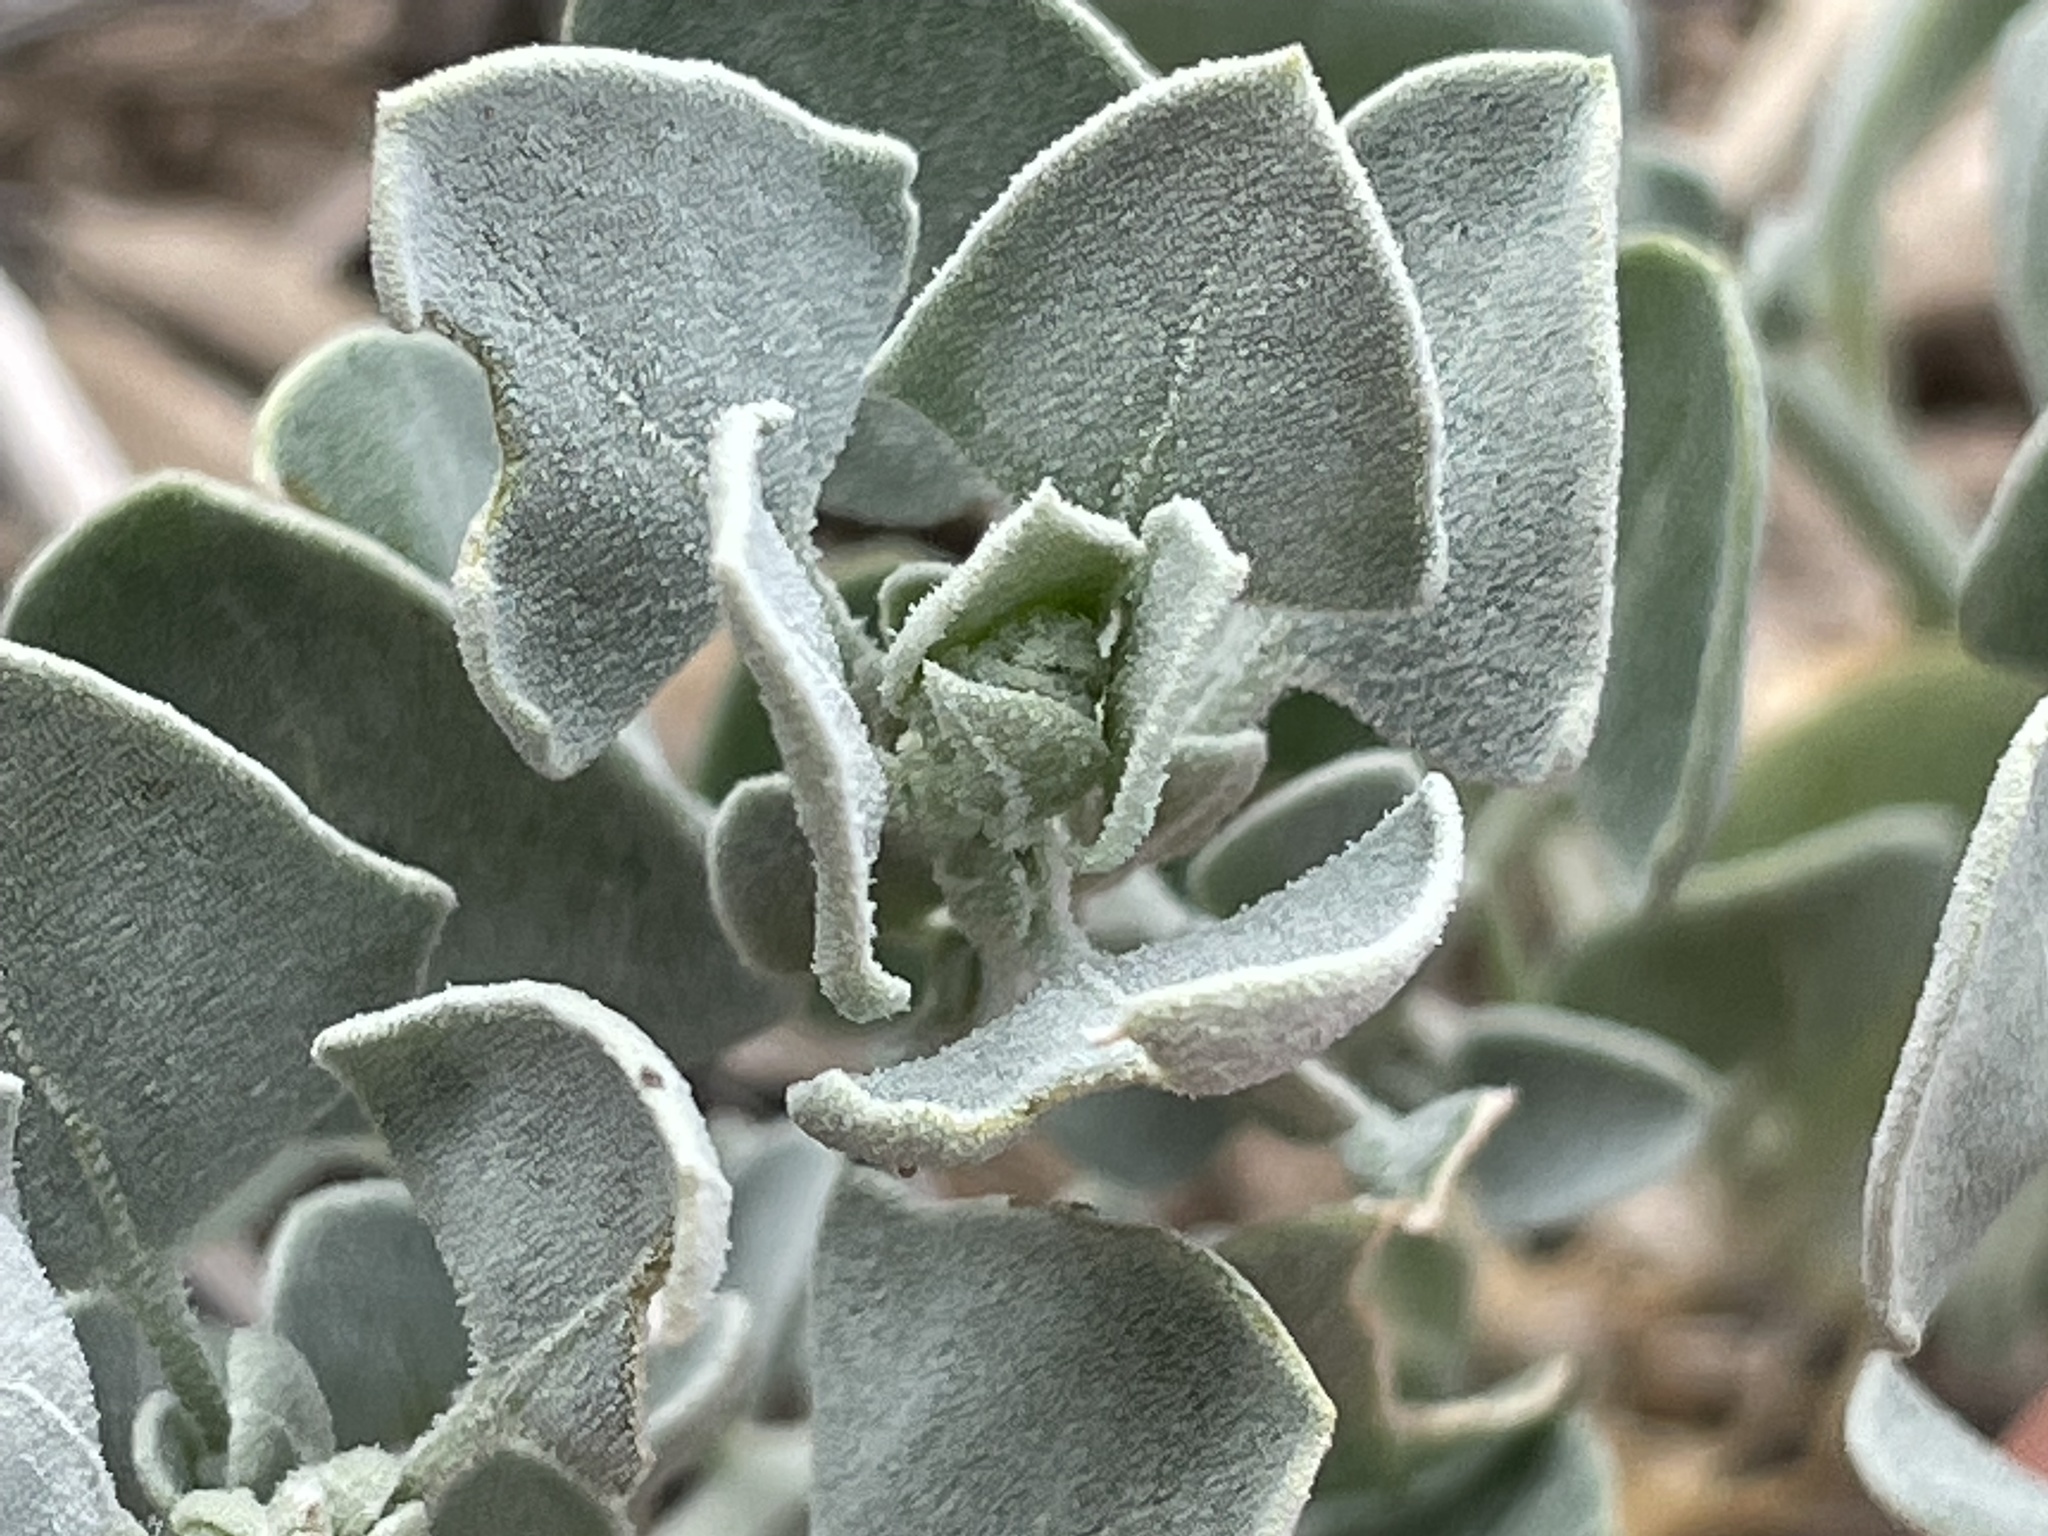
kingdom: Plantae
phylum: Tracheophyta
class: Magnoliopsida
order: Caryophyllales
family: Amaranthaceae
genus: Chenopodium
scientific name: Chenopodium incanum
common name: Hoary goosefoot
